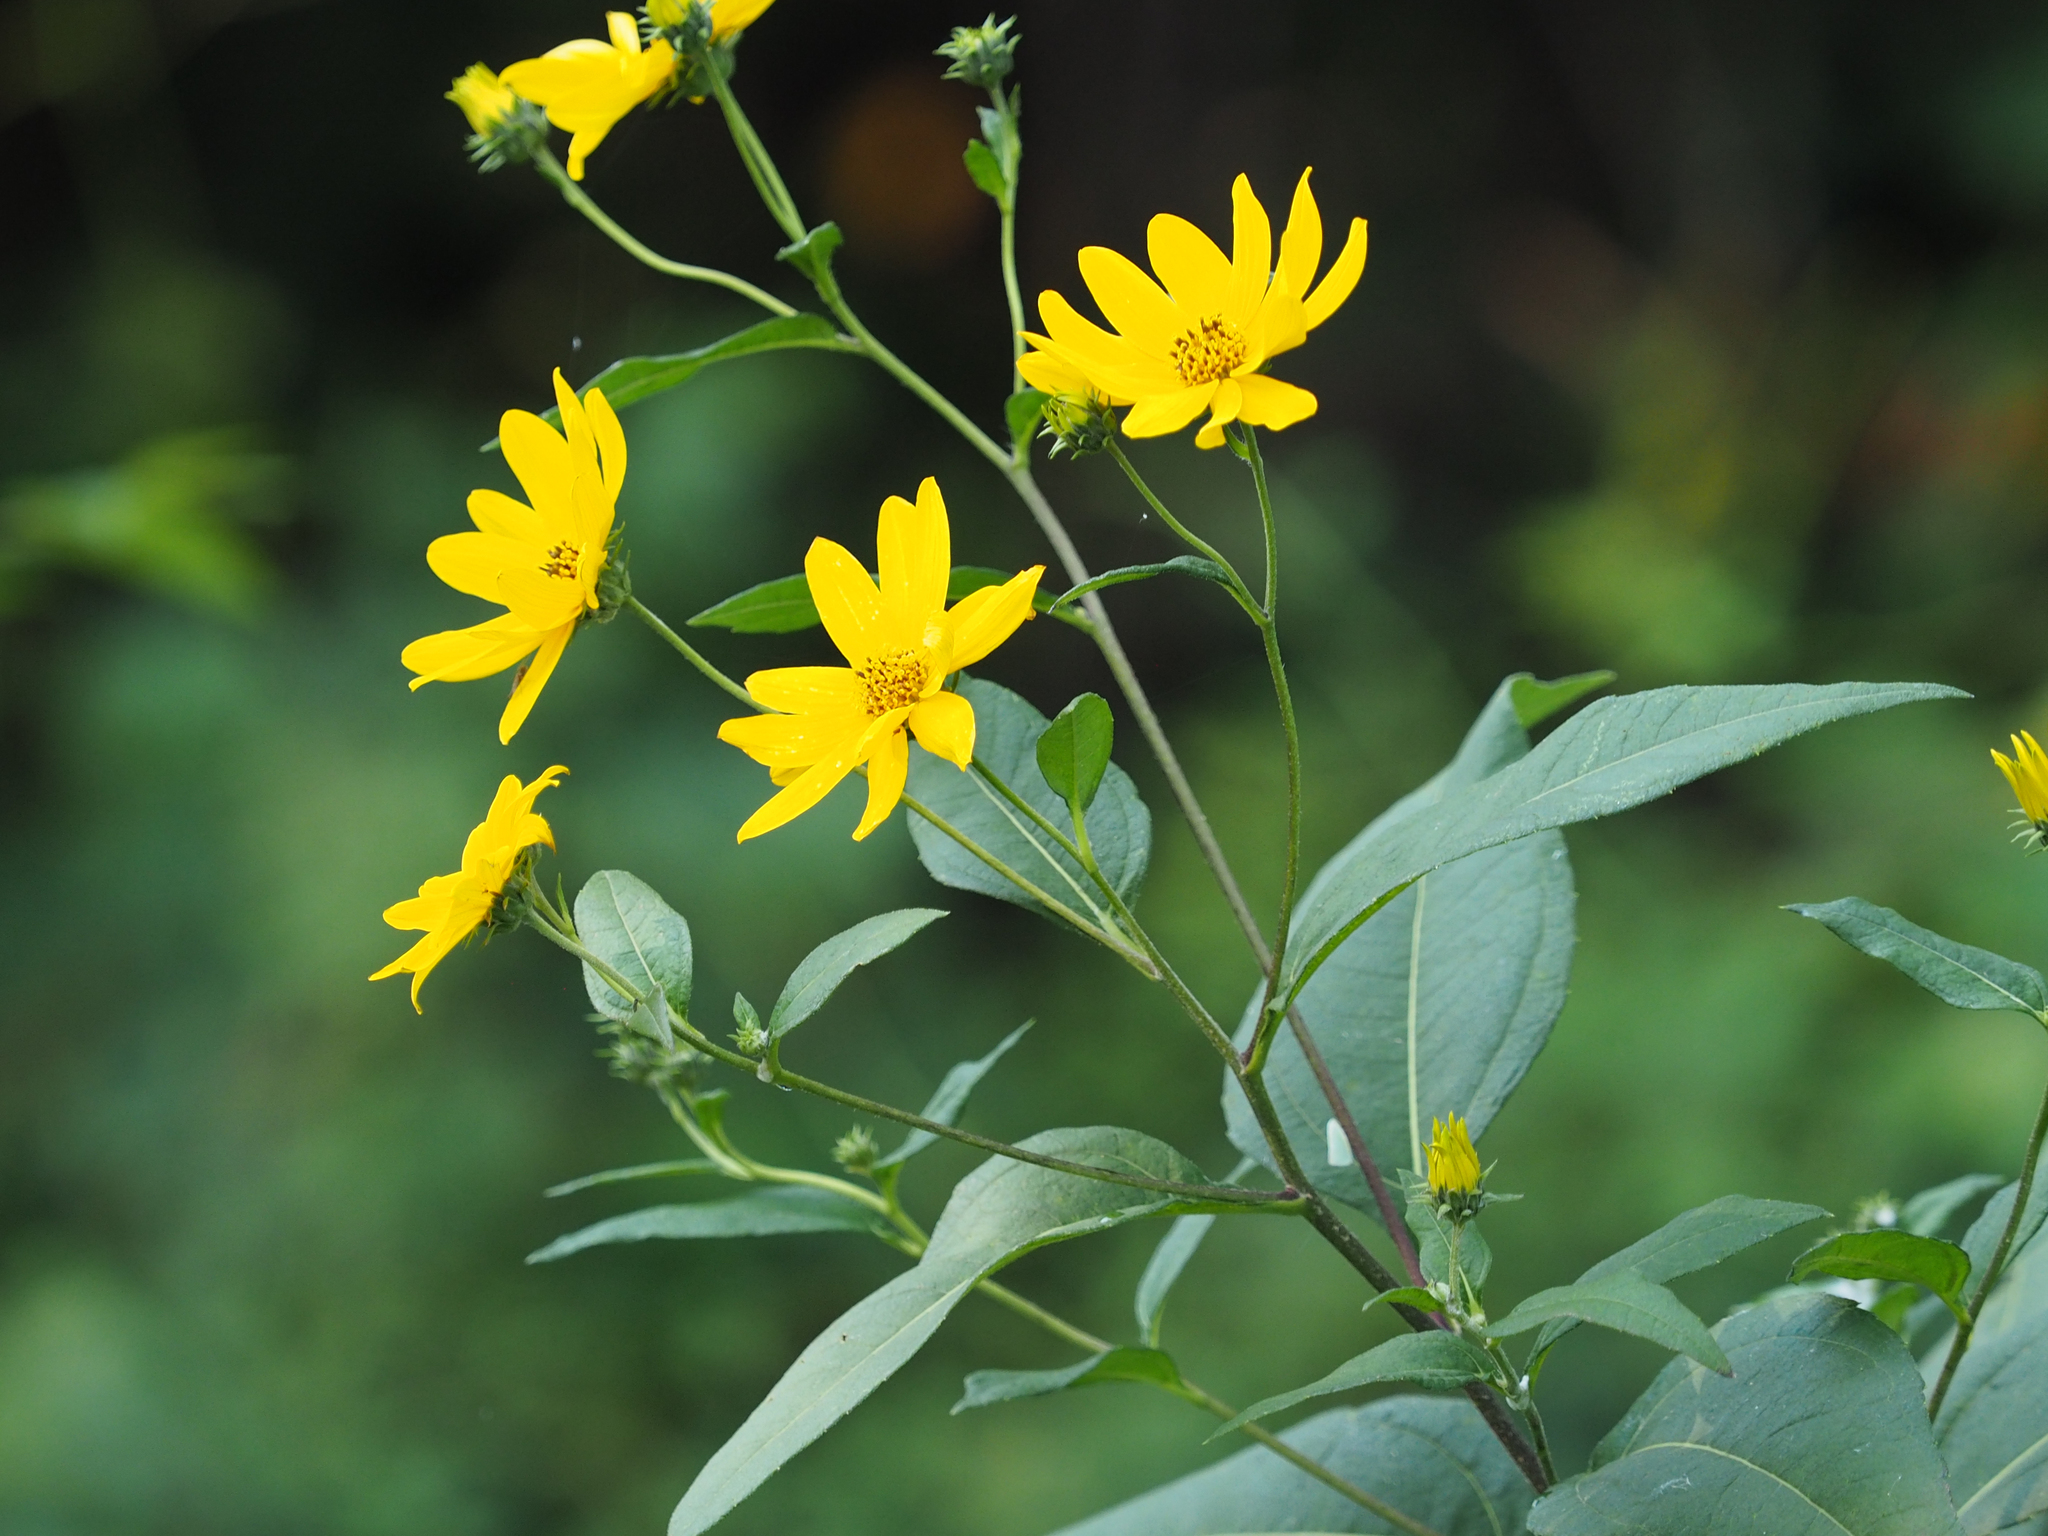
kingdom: Plantae
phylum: Tracheophyta
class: Magnoliopsida
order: Asterales
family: Asteraceae
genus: Helianthus
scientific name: Helianthus tuberosus
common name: Jerusalem artichoke
